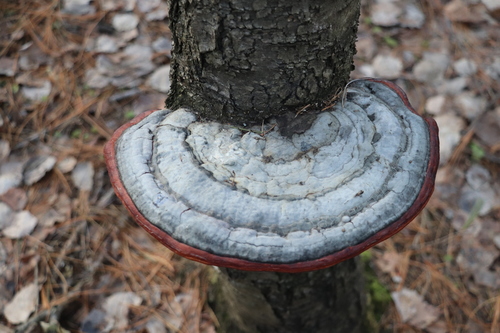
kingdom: Fungi
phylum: Basidiomycota
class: Agaricomycetes
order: Polyporales
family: Fomitopsidaceae
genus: Fomitopsis
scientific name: Fomitopsis pinicola
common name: Red-belted bracket
